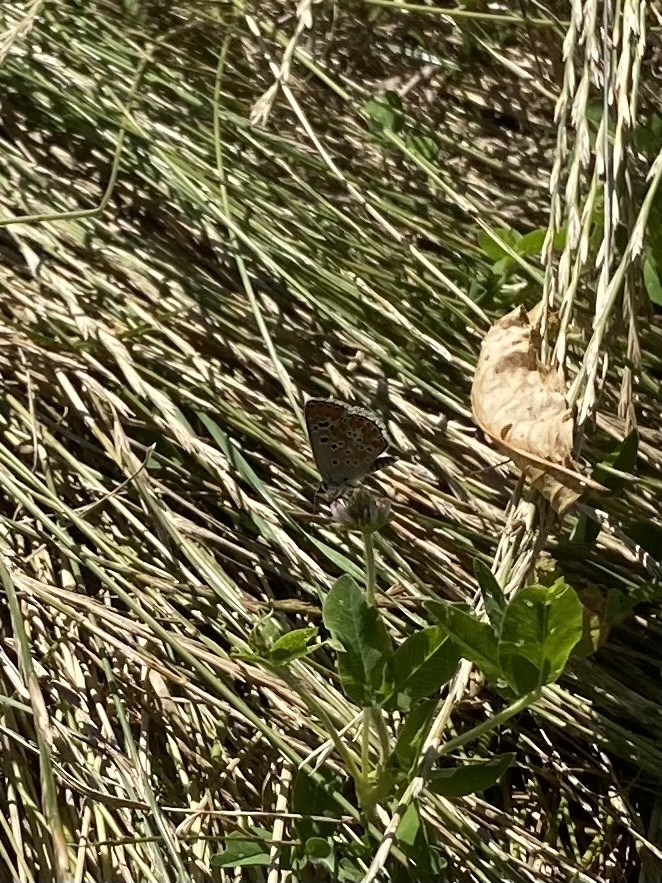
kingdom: Animalia
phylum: Arthropoda
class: Insecta
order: Lepidoptera
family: Lycaenidae
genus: Aricia
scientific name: Aricia agestis
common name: Brown argus
